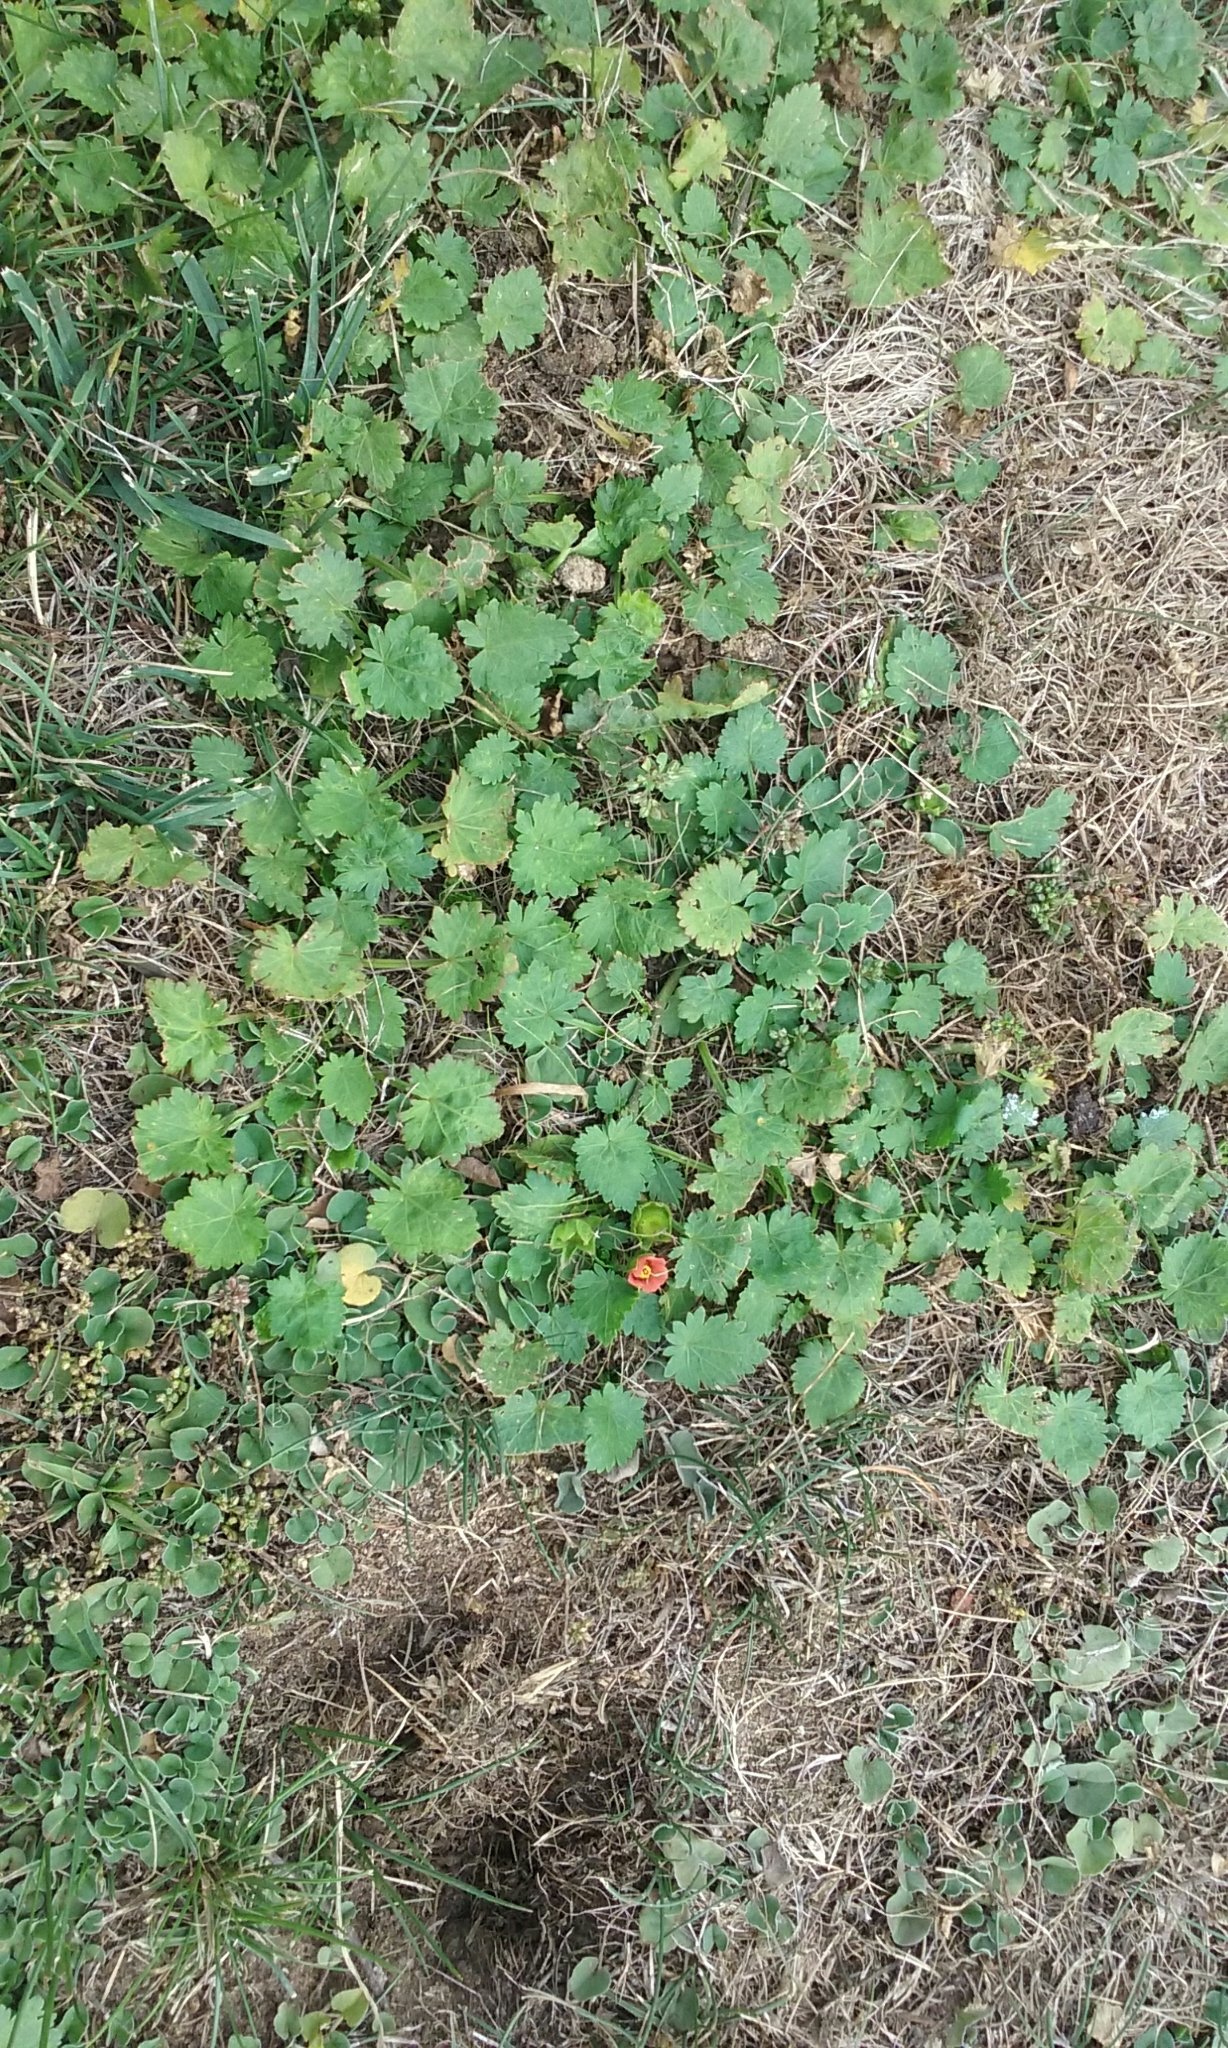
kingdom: Plantae
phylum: Tracheophyta
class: Magnoliopsida
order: Malvales
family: Malvaceae
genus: Modiola
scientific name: Modiola caroliniana
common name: Carolina bristlemallow
